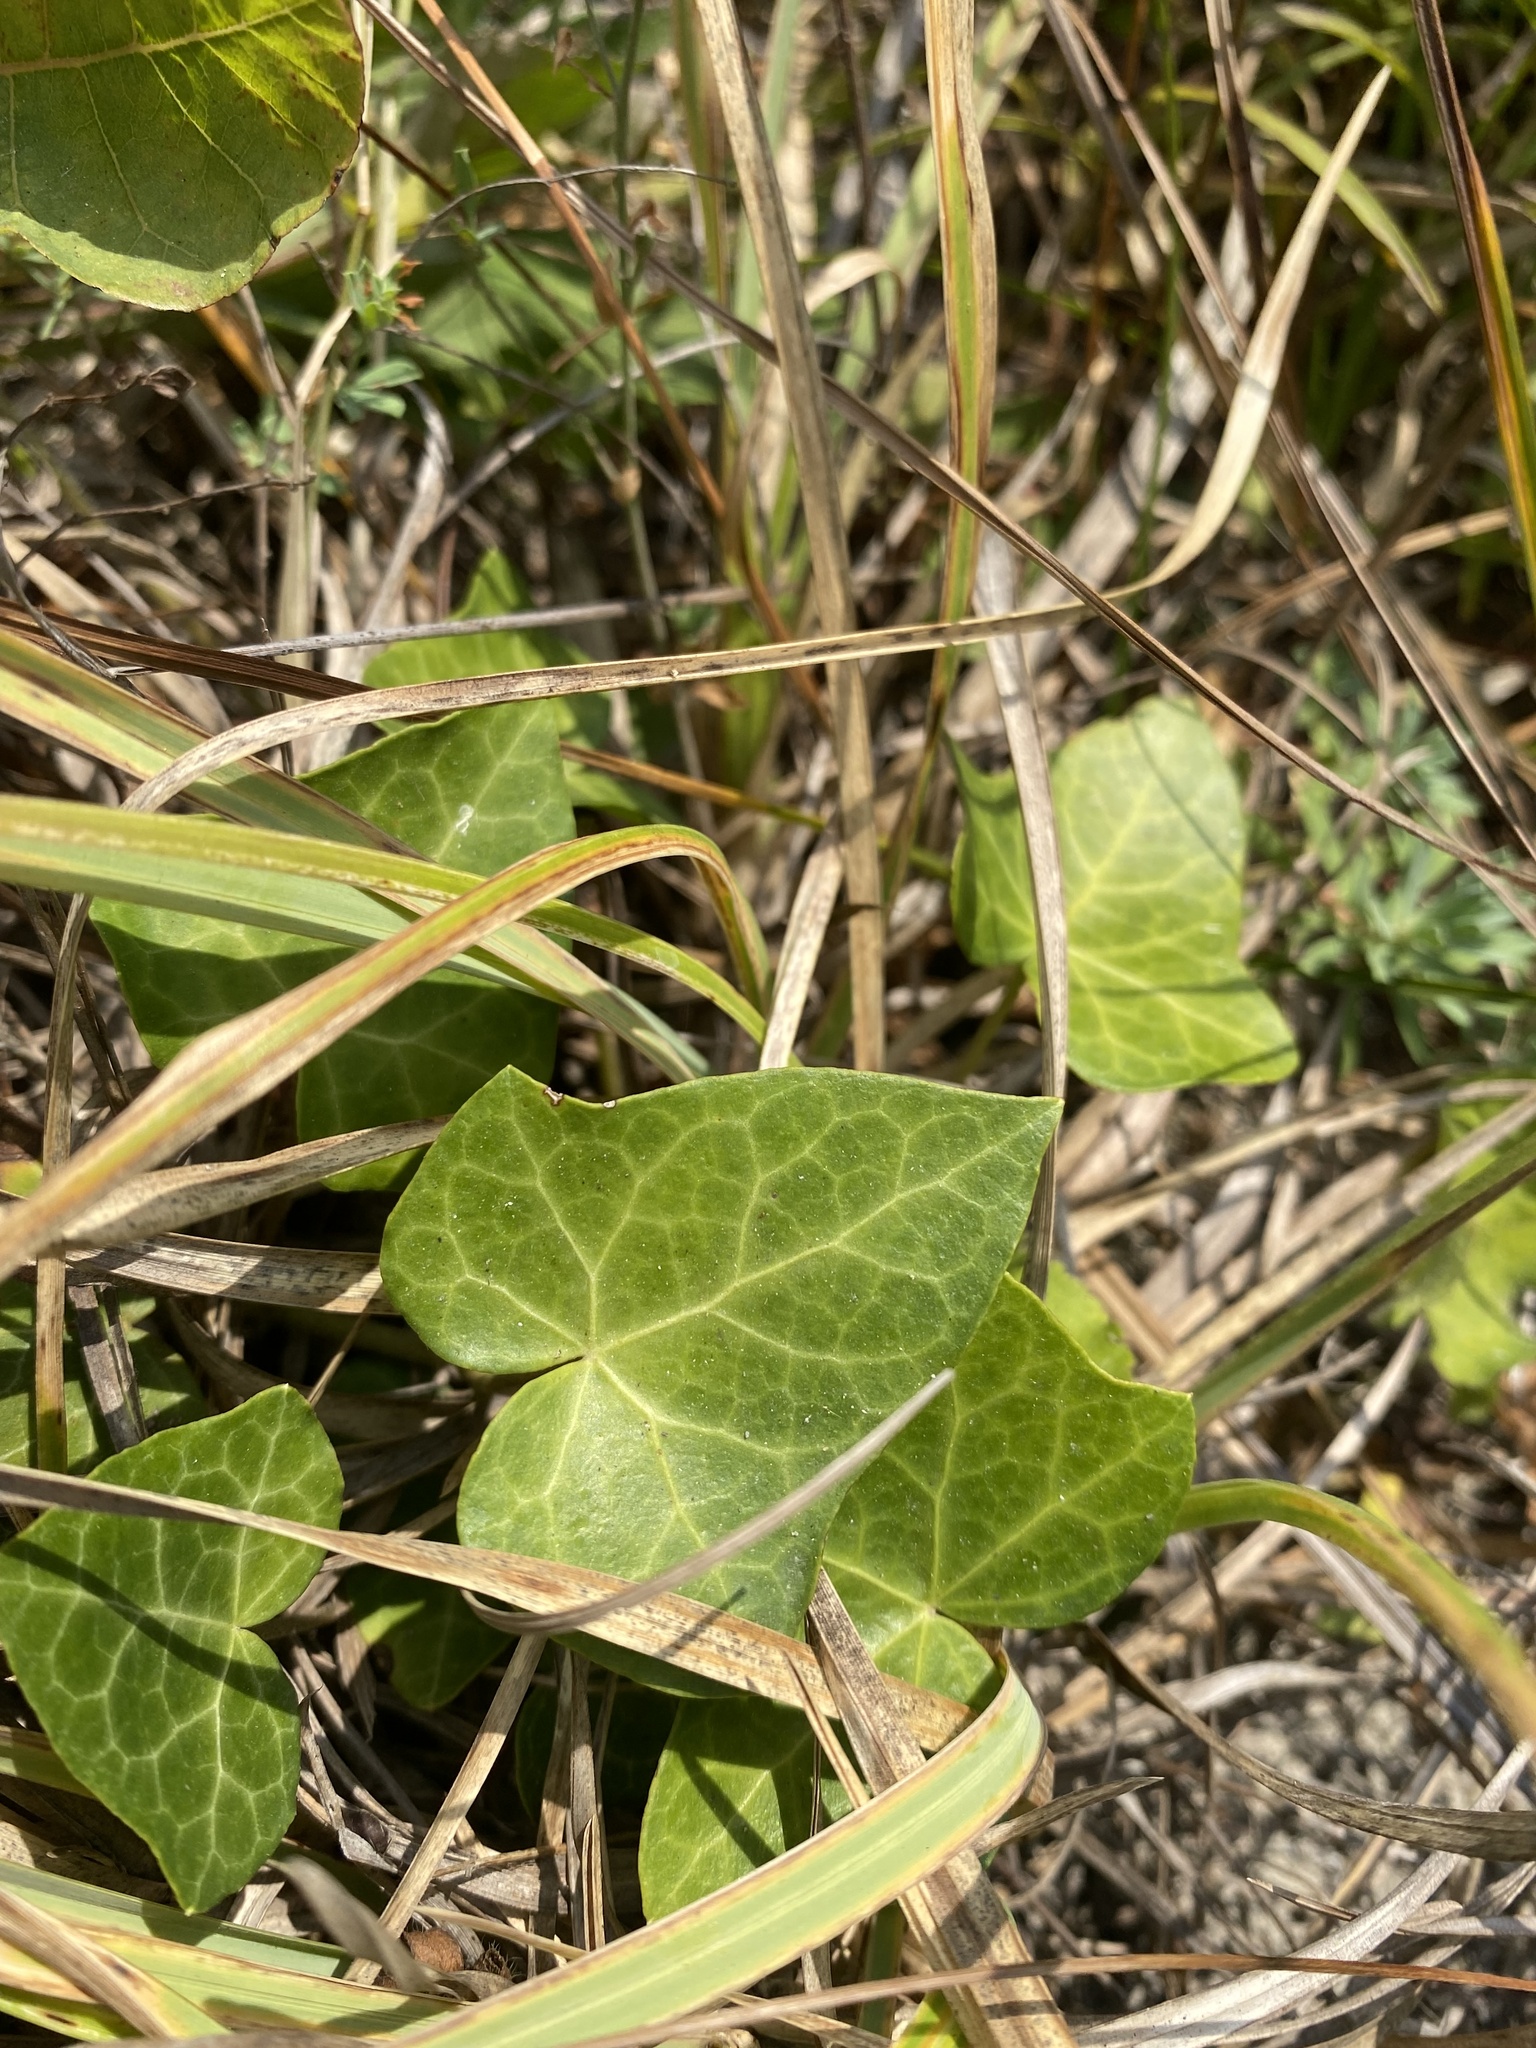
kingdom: Plantae
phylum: Tracheophyta
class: Magnoliopsida
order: Apiales
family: Araliaceae
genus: Hedera
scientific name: Hedera helix
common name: Ivy
